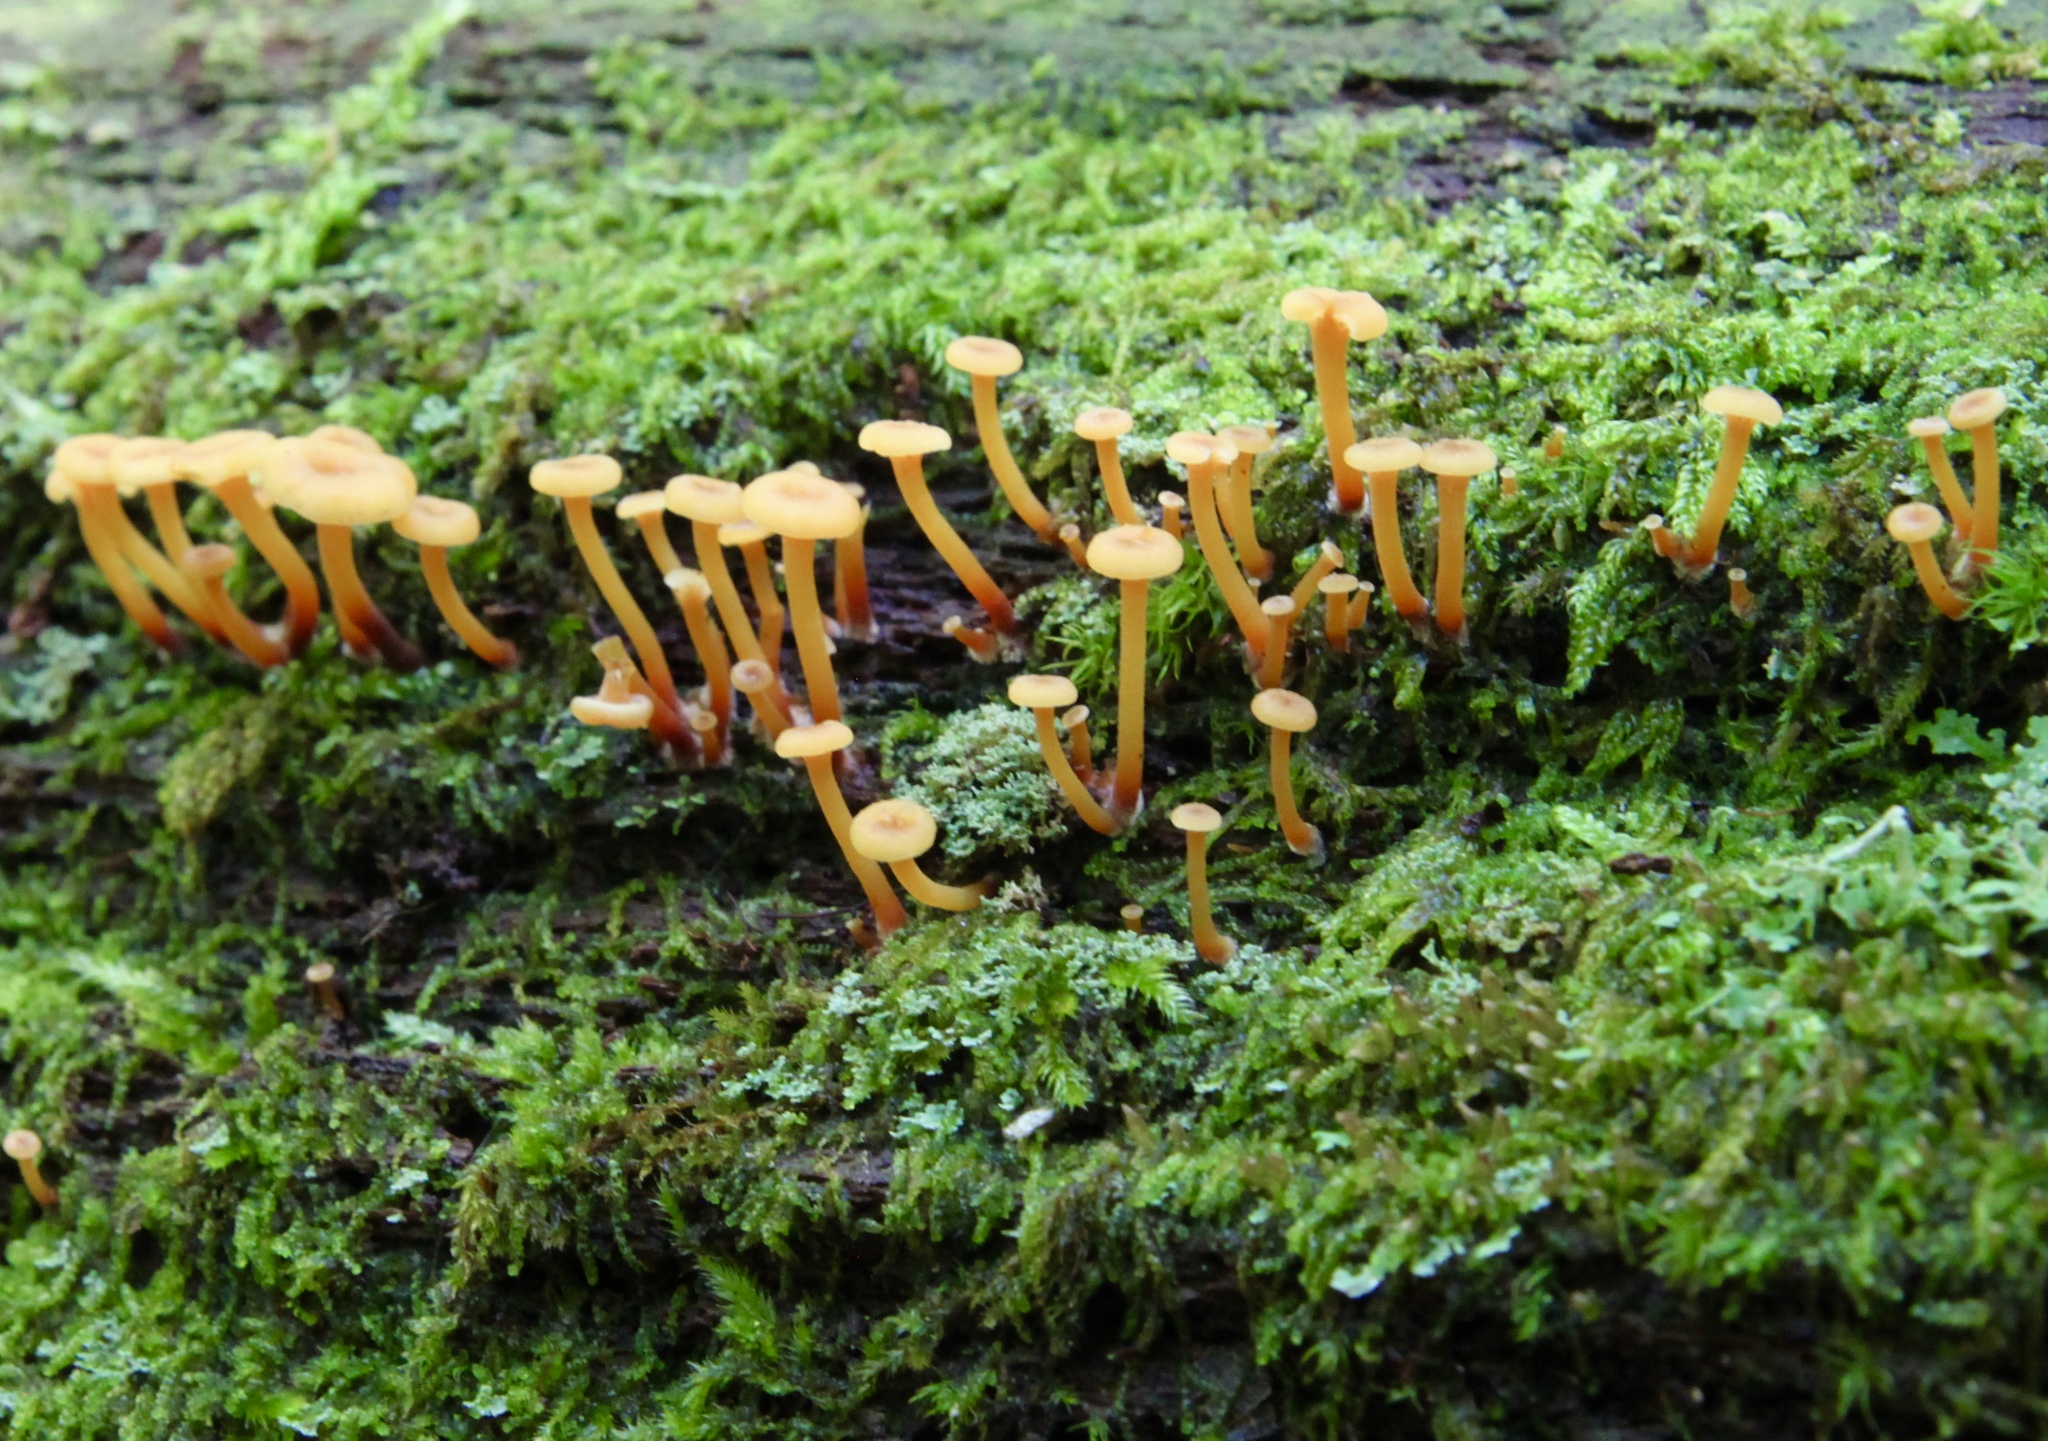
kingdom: Fungi
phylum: Basidiomycota
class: Agaricomycetes
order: Agaricales
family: Mycenaceae
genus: Xeromphalina
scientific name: Xeromphalina campanella
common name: Pinewood gingertail
